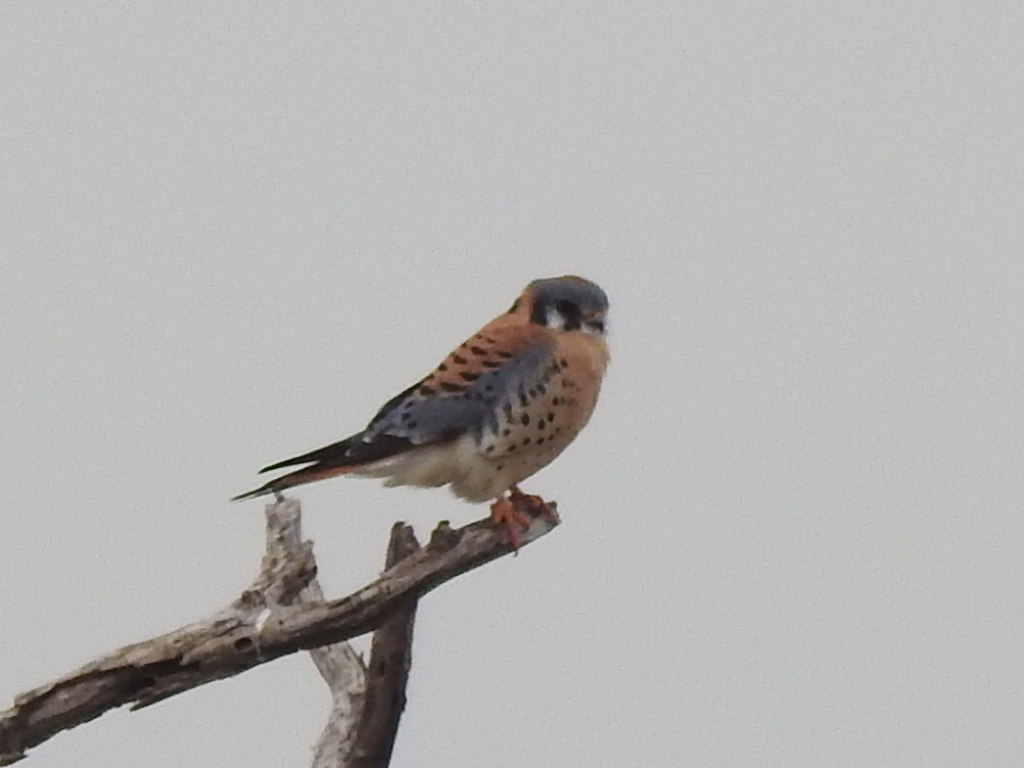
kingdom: Animalia
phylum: Chordata
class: Aves
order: Falconiformes
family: Falconidae
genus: Falco
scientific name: Falco sparverius
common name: American kestrel
